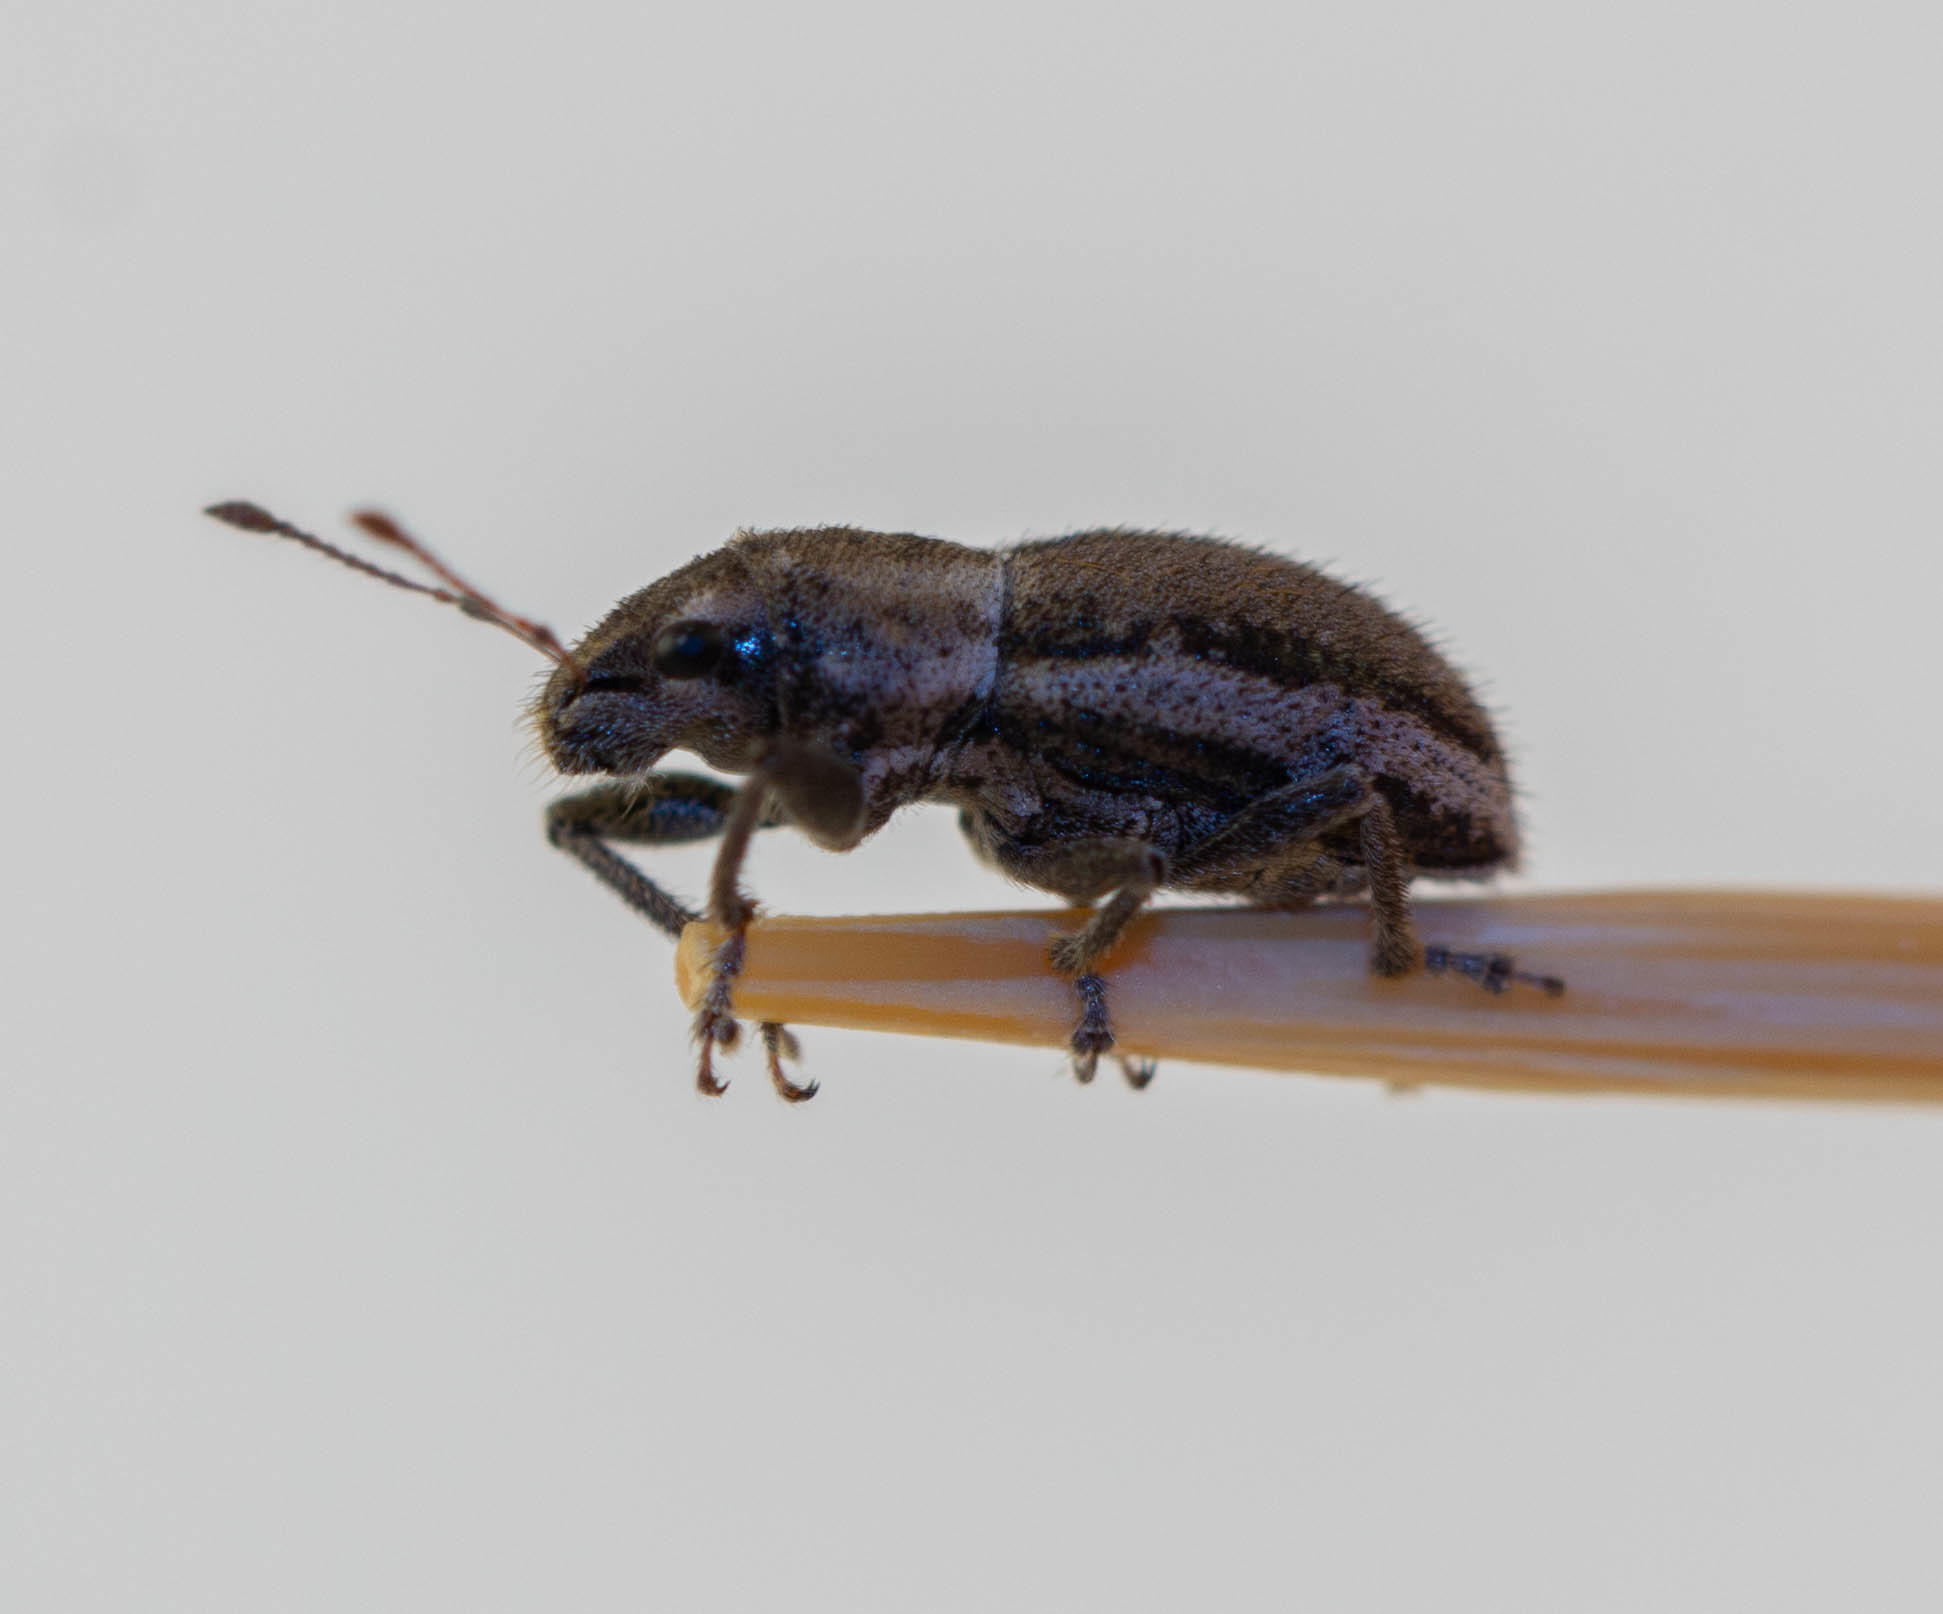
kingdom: Animalia
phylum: Arthropoda
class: Insecta
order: Coleoptera
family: Curculionidae
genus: Naupactus
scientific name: Naupactus leucoloma
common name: Whitefringed beetle
